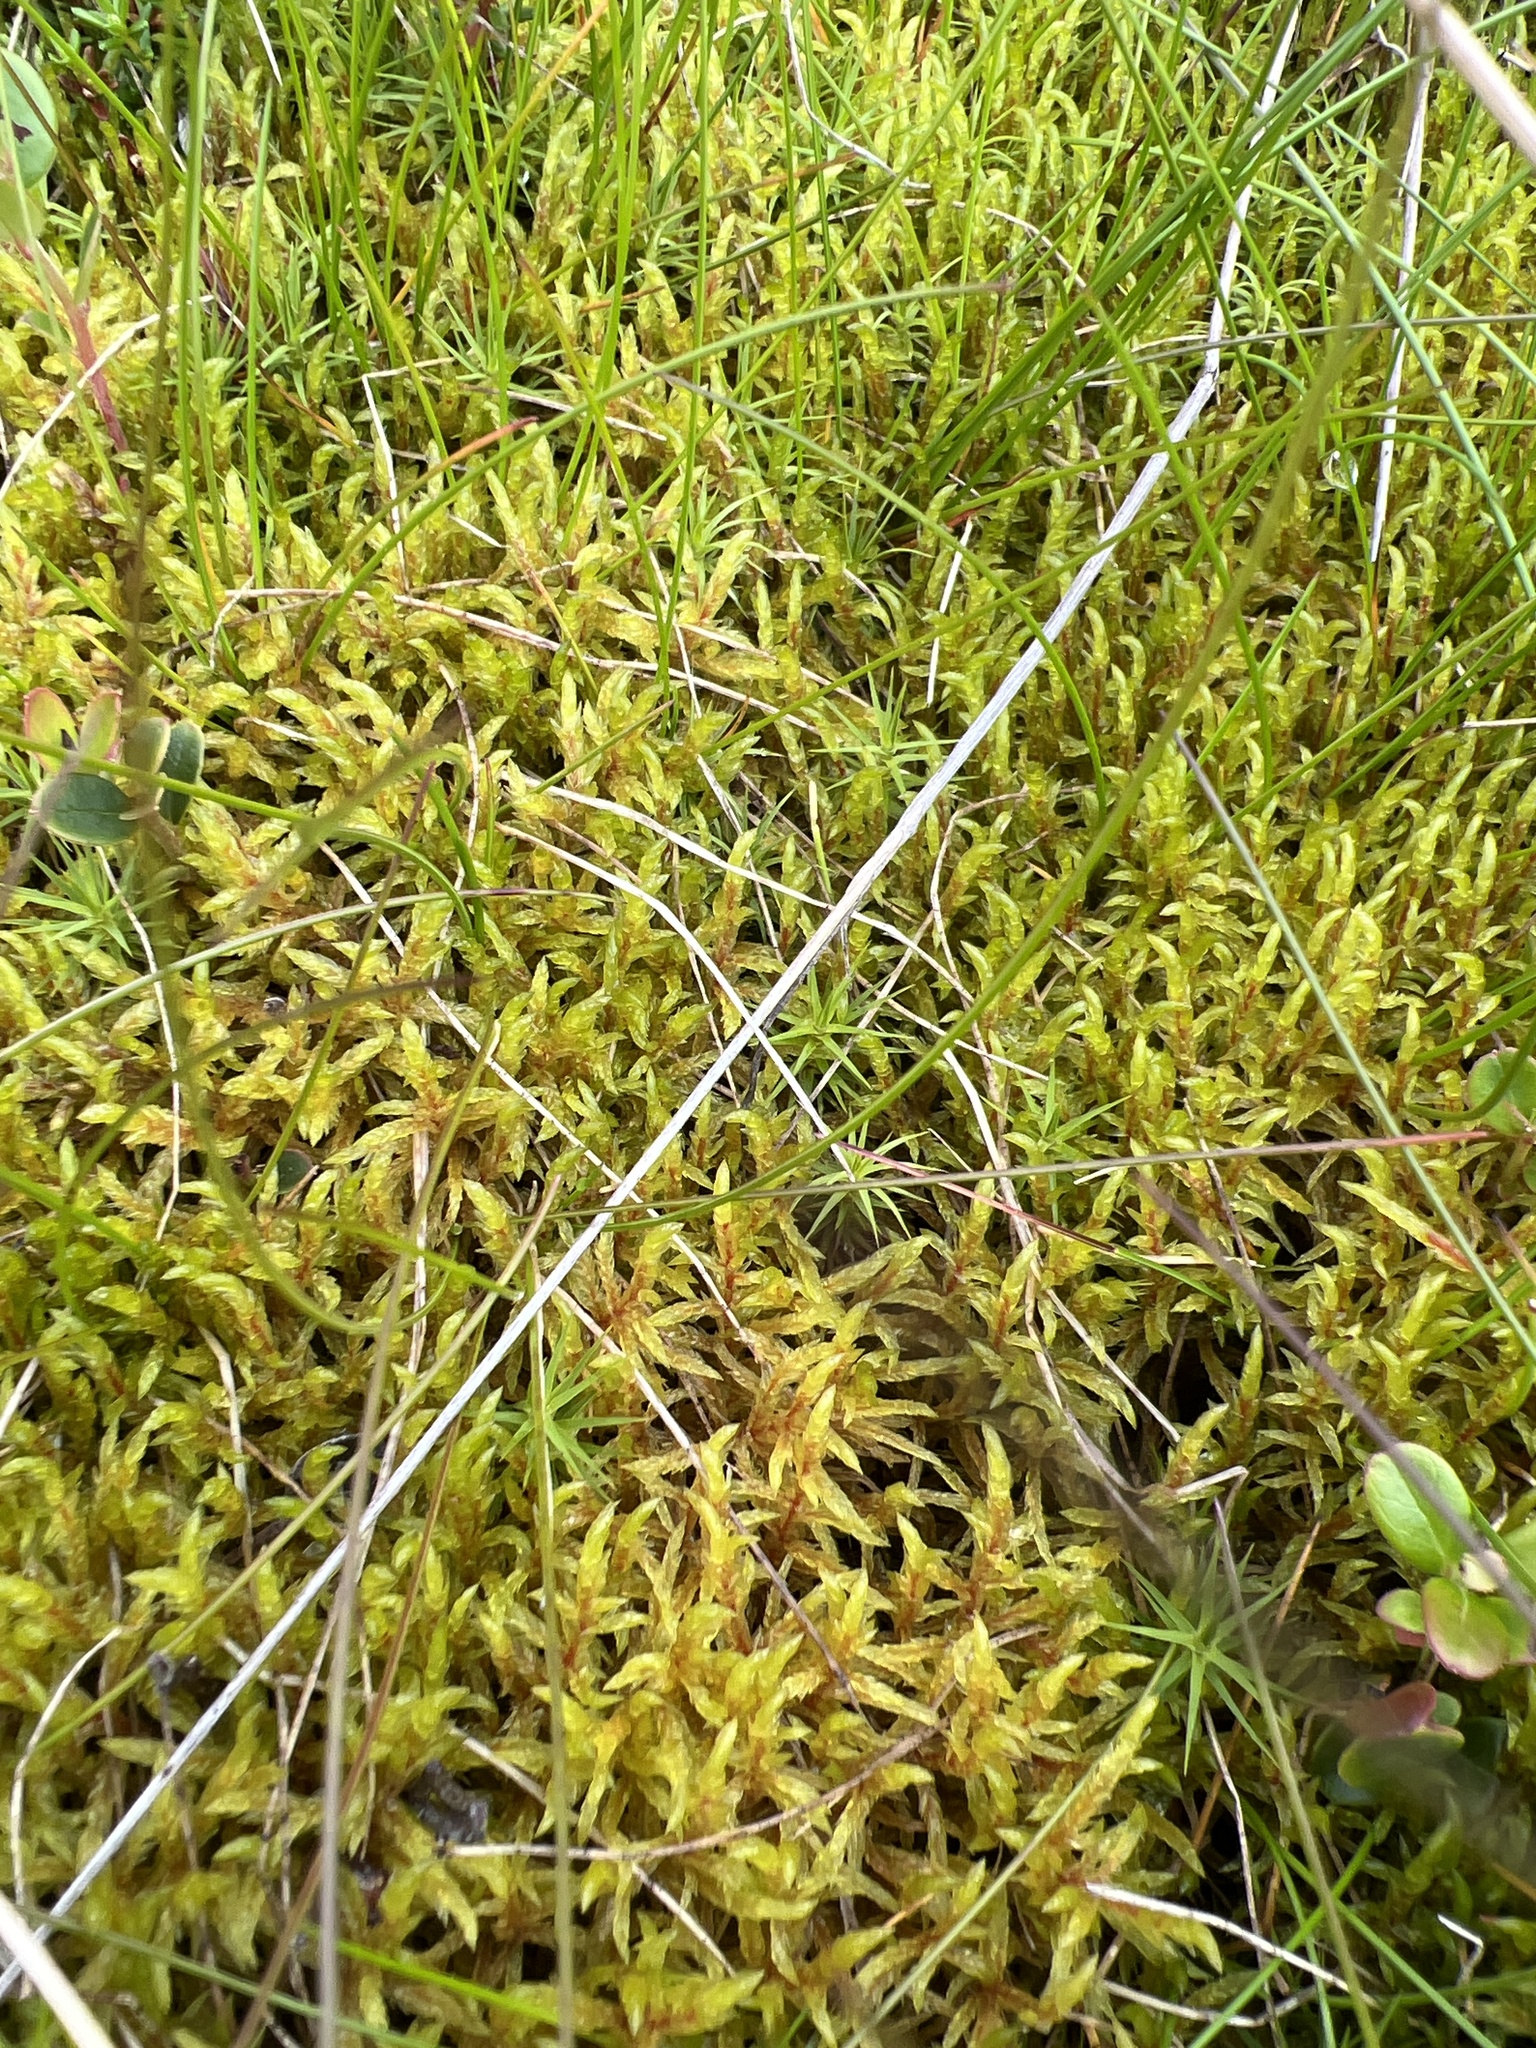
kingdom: Plantae
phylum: Bryophyta
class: Bryopsida
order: Hypnales
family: Hylocomiaceae
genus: Pleurozium
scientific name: Pleurozium schreberi
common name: Red-stemmed feather moss
